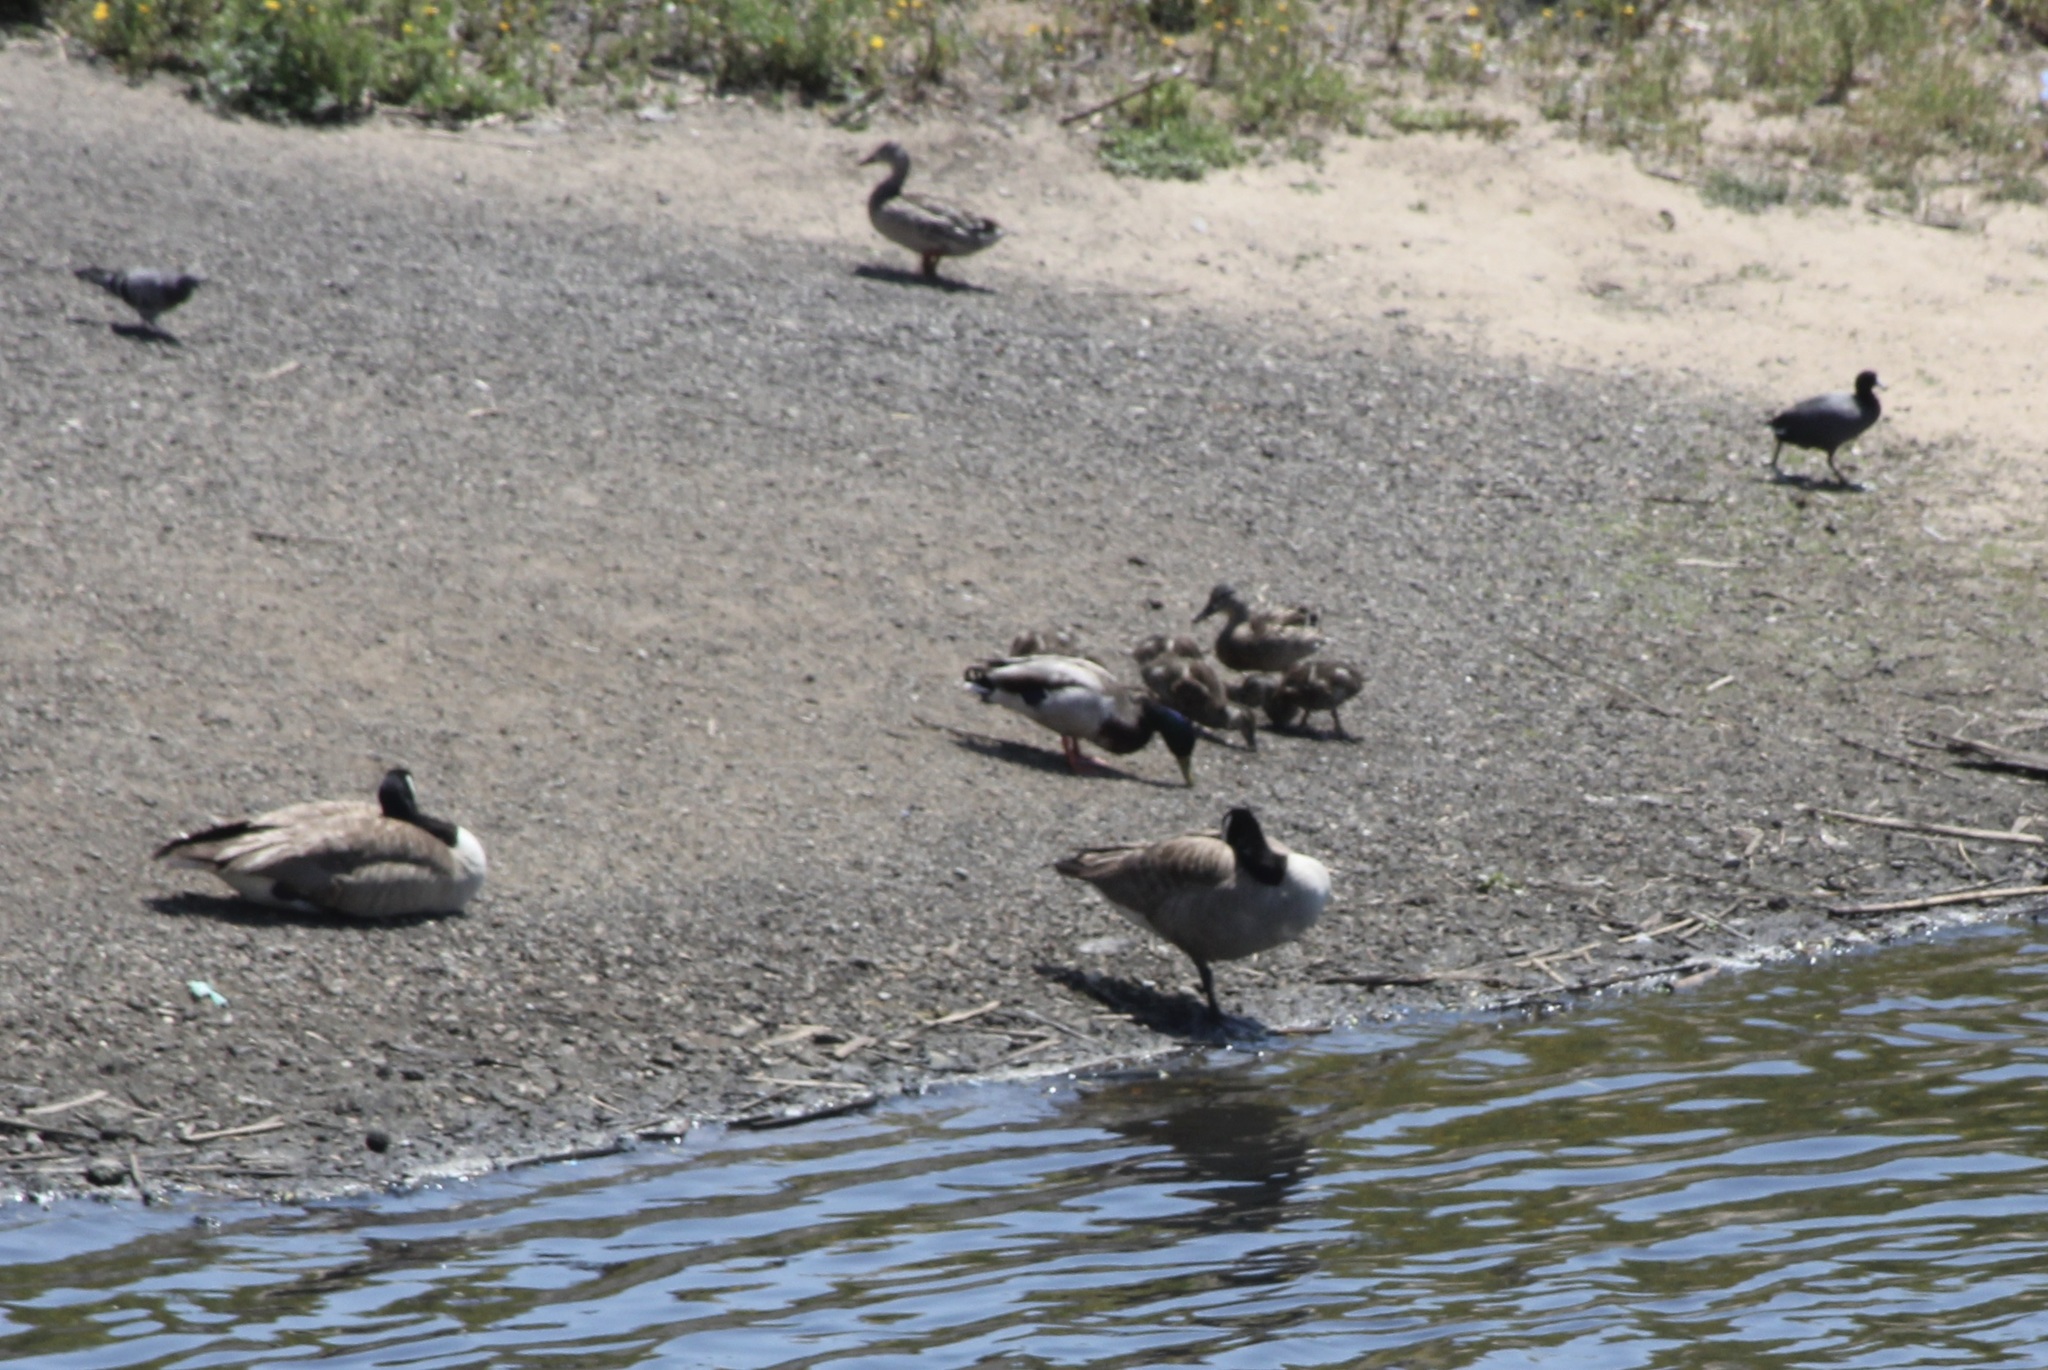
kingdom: Animalia
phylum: Chordata
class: Aves
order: Gruiformes
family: Rallidae
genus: Fulica
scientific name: Fulica americana
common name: American coot
